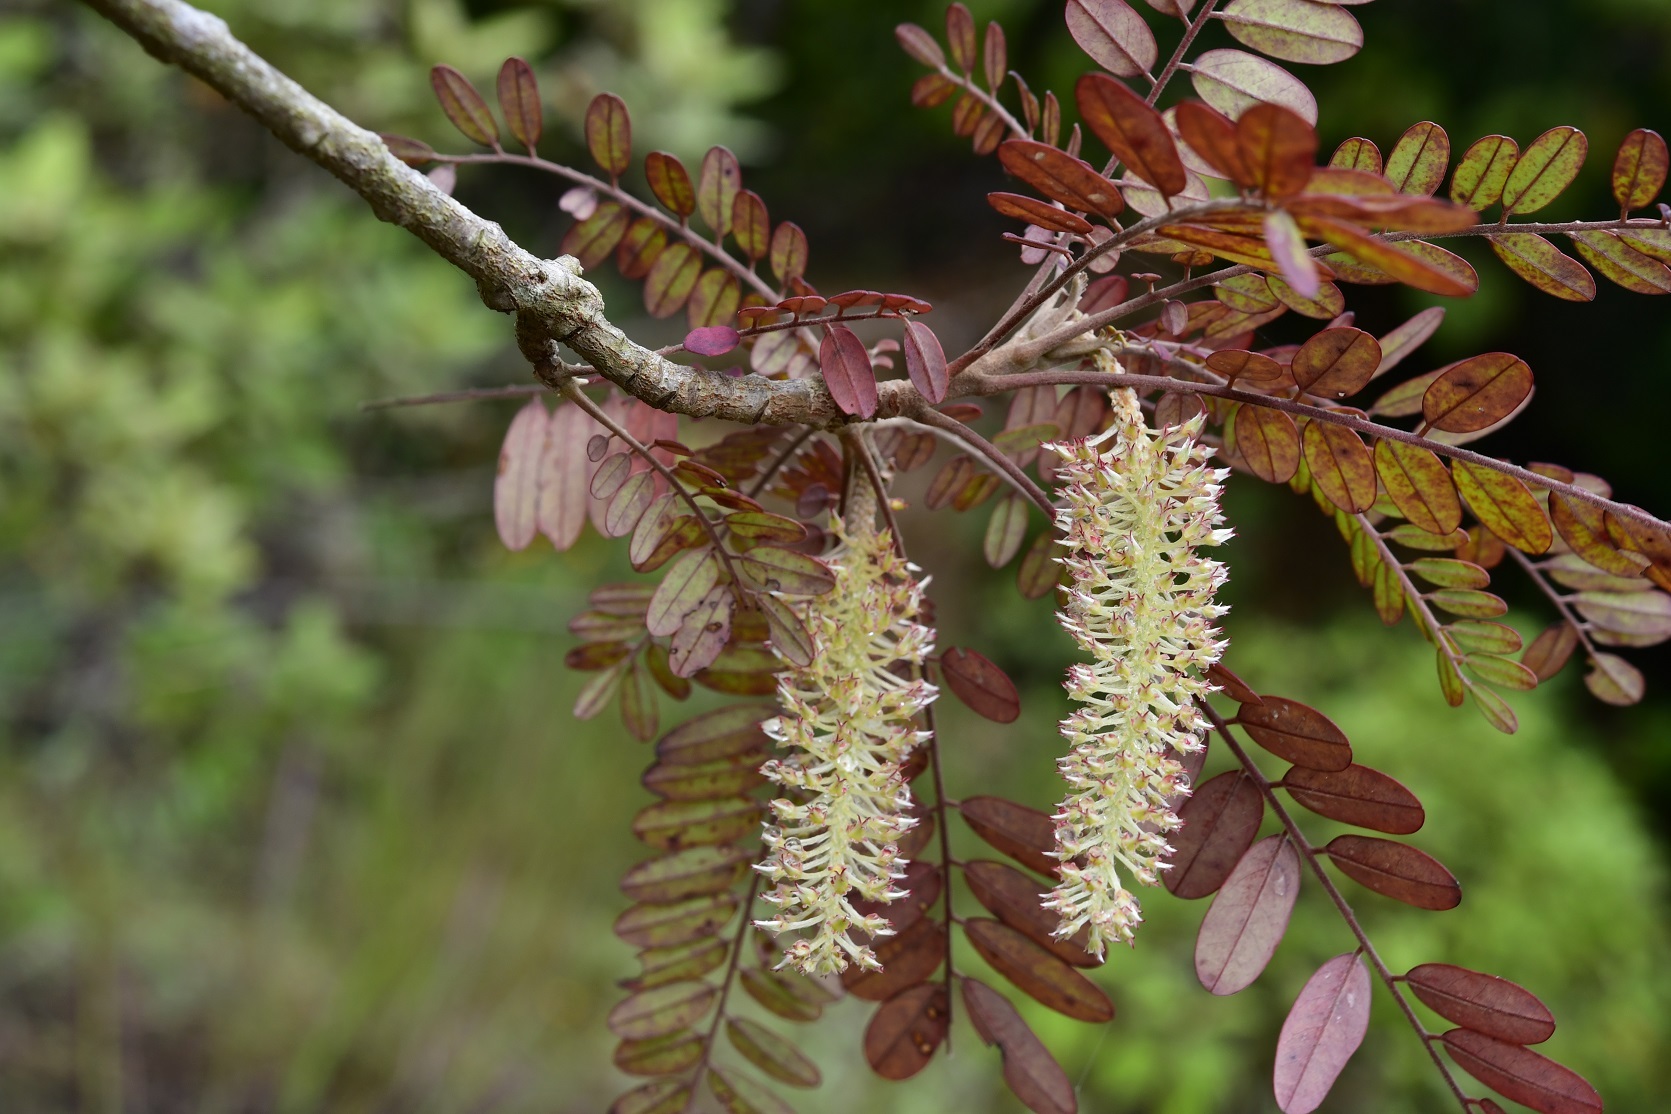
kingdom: Plantae
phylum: Tracheophyta
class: Magnoliopsida
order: Picramniales
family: Picramniaceae
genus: Alvaradoa
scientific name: Alvaradoa amorphoides
